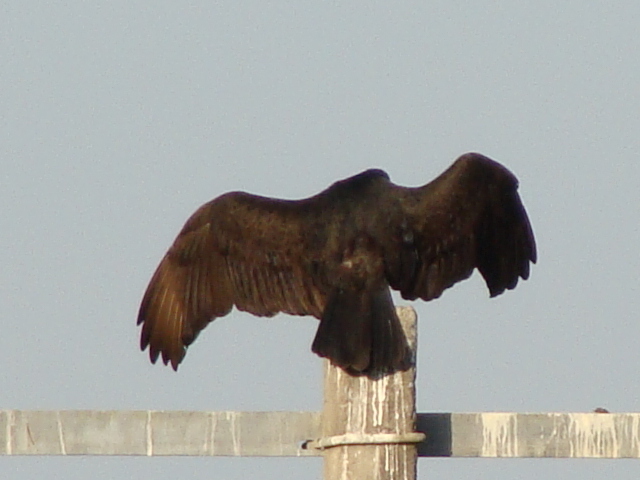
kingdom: Animalia
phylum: Chordata
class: Aves
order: Accipitriformes
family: Cathartidae
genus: Cathartes
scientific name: Cathartes aura
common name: Turkey vulture
